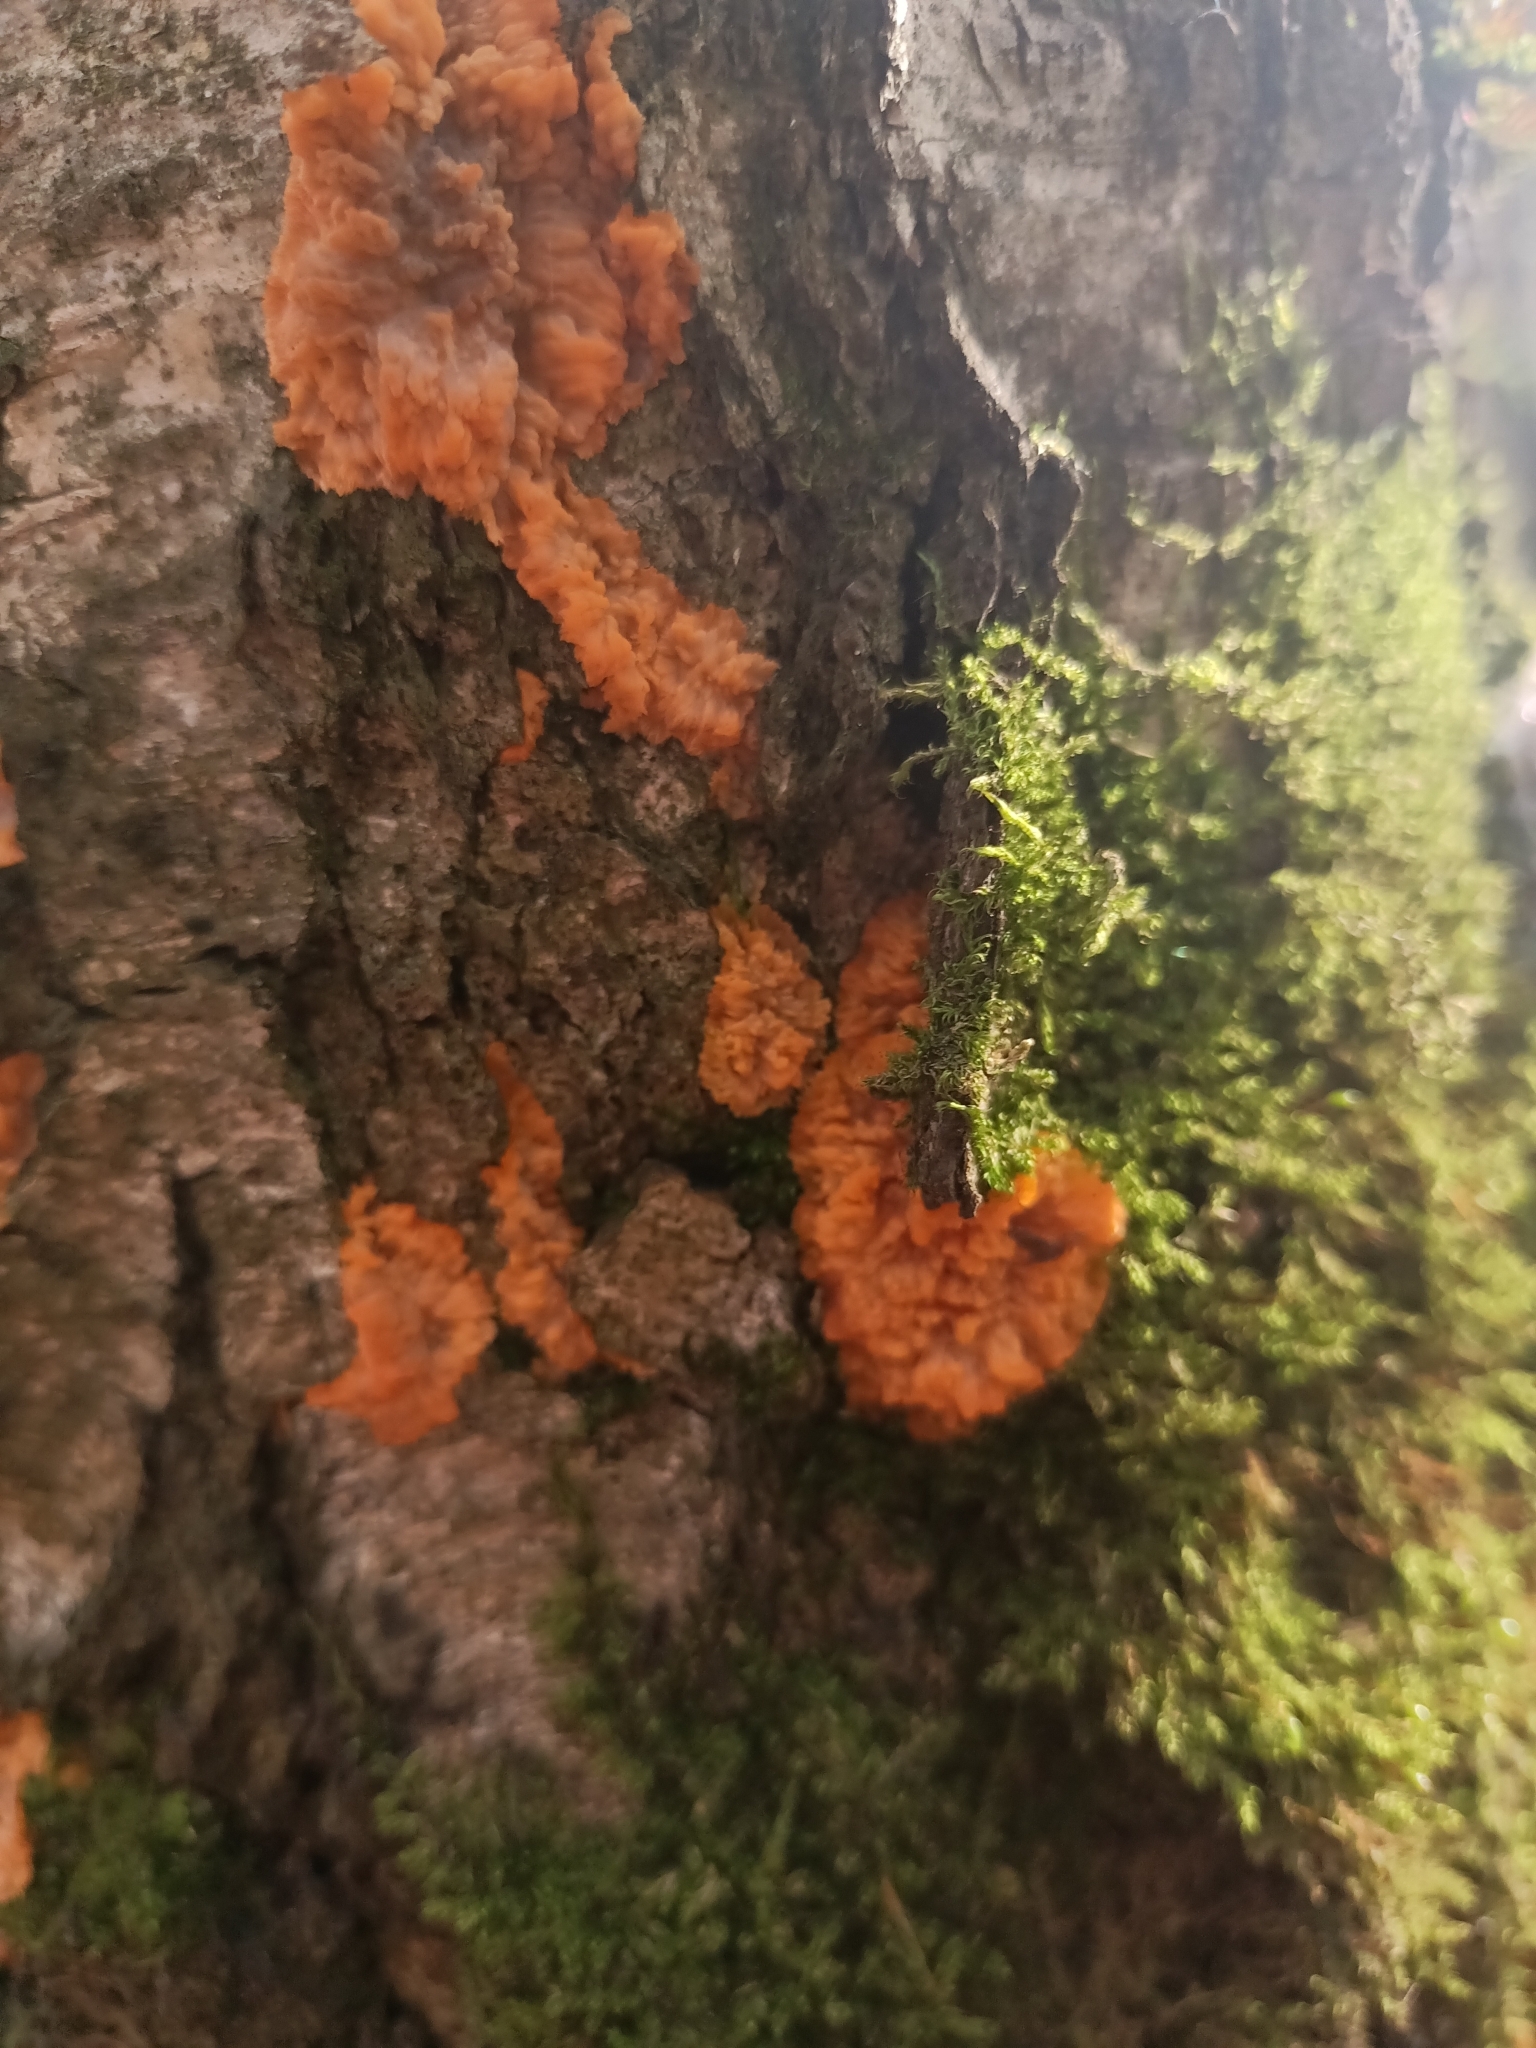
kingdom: Fungi
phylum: Basidiomycota
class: Agaricomycetes
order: Polyporales
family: Meruliaceae
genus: Phlebia
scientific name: Phlebia radiata
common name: Wrinkled crust
